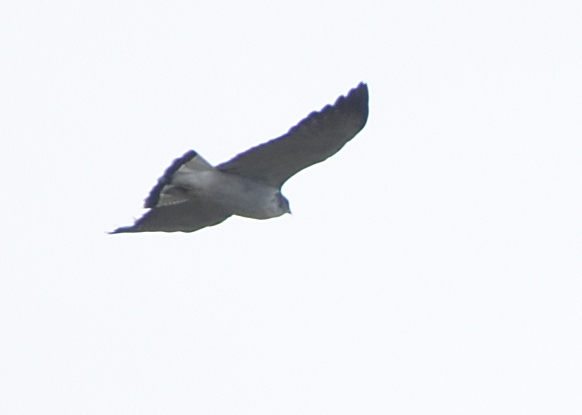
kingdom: Animalia
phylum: Chordata
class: Aves
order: Accipitriformes
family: Accipitridae
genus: Buteo
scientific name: Buteo polyosoma
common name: Variable hawk
